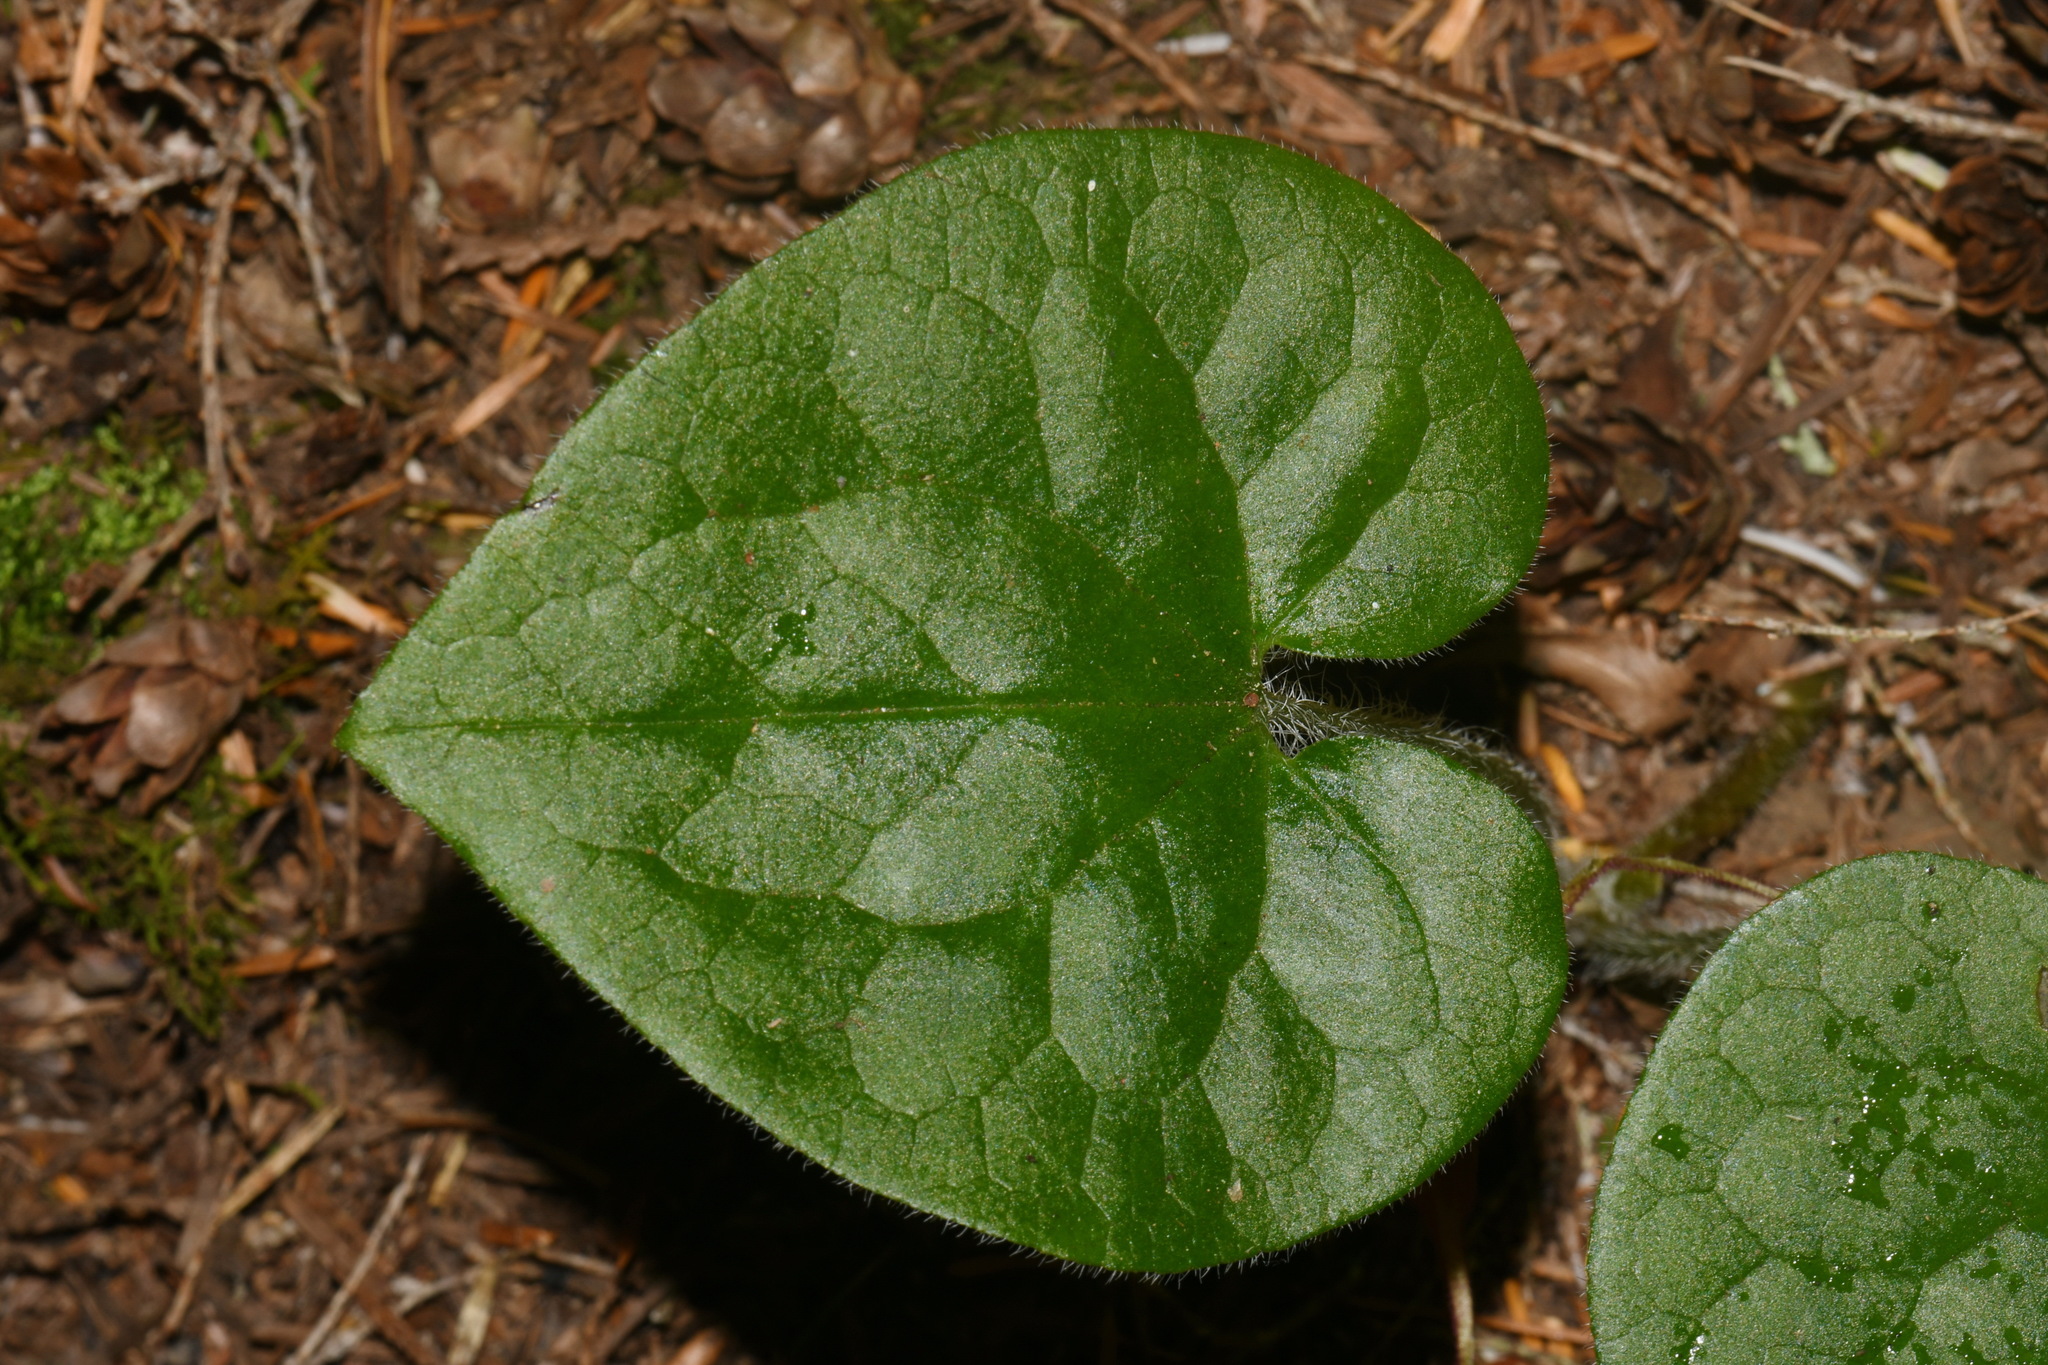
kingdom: Plantae
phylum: Tracheophyta
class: Magnoliopsida
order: Piperales
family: Aristolochiaceae
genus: Asarum
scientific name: Asarum caudatum
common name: Wild ginger
